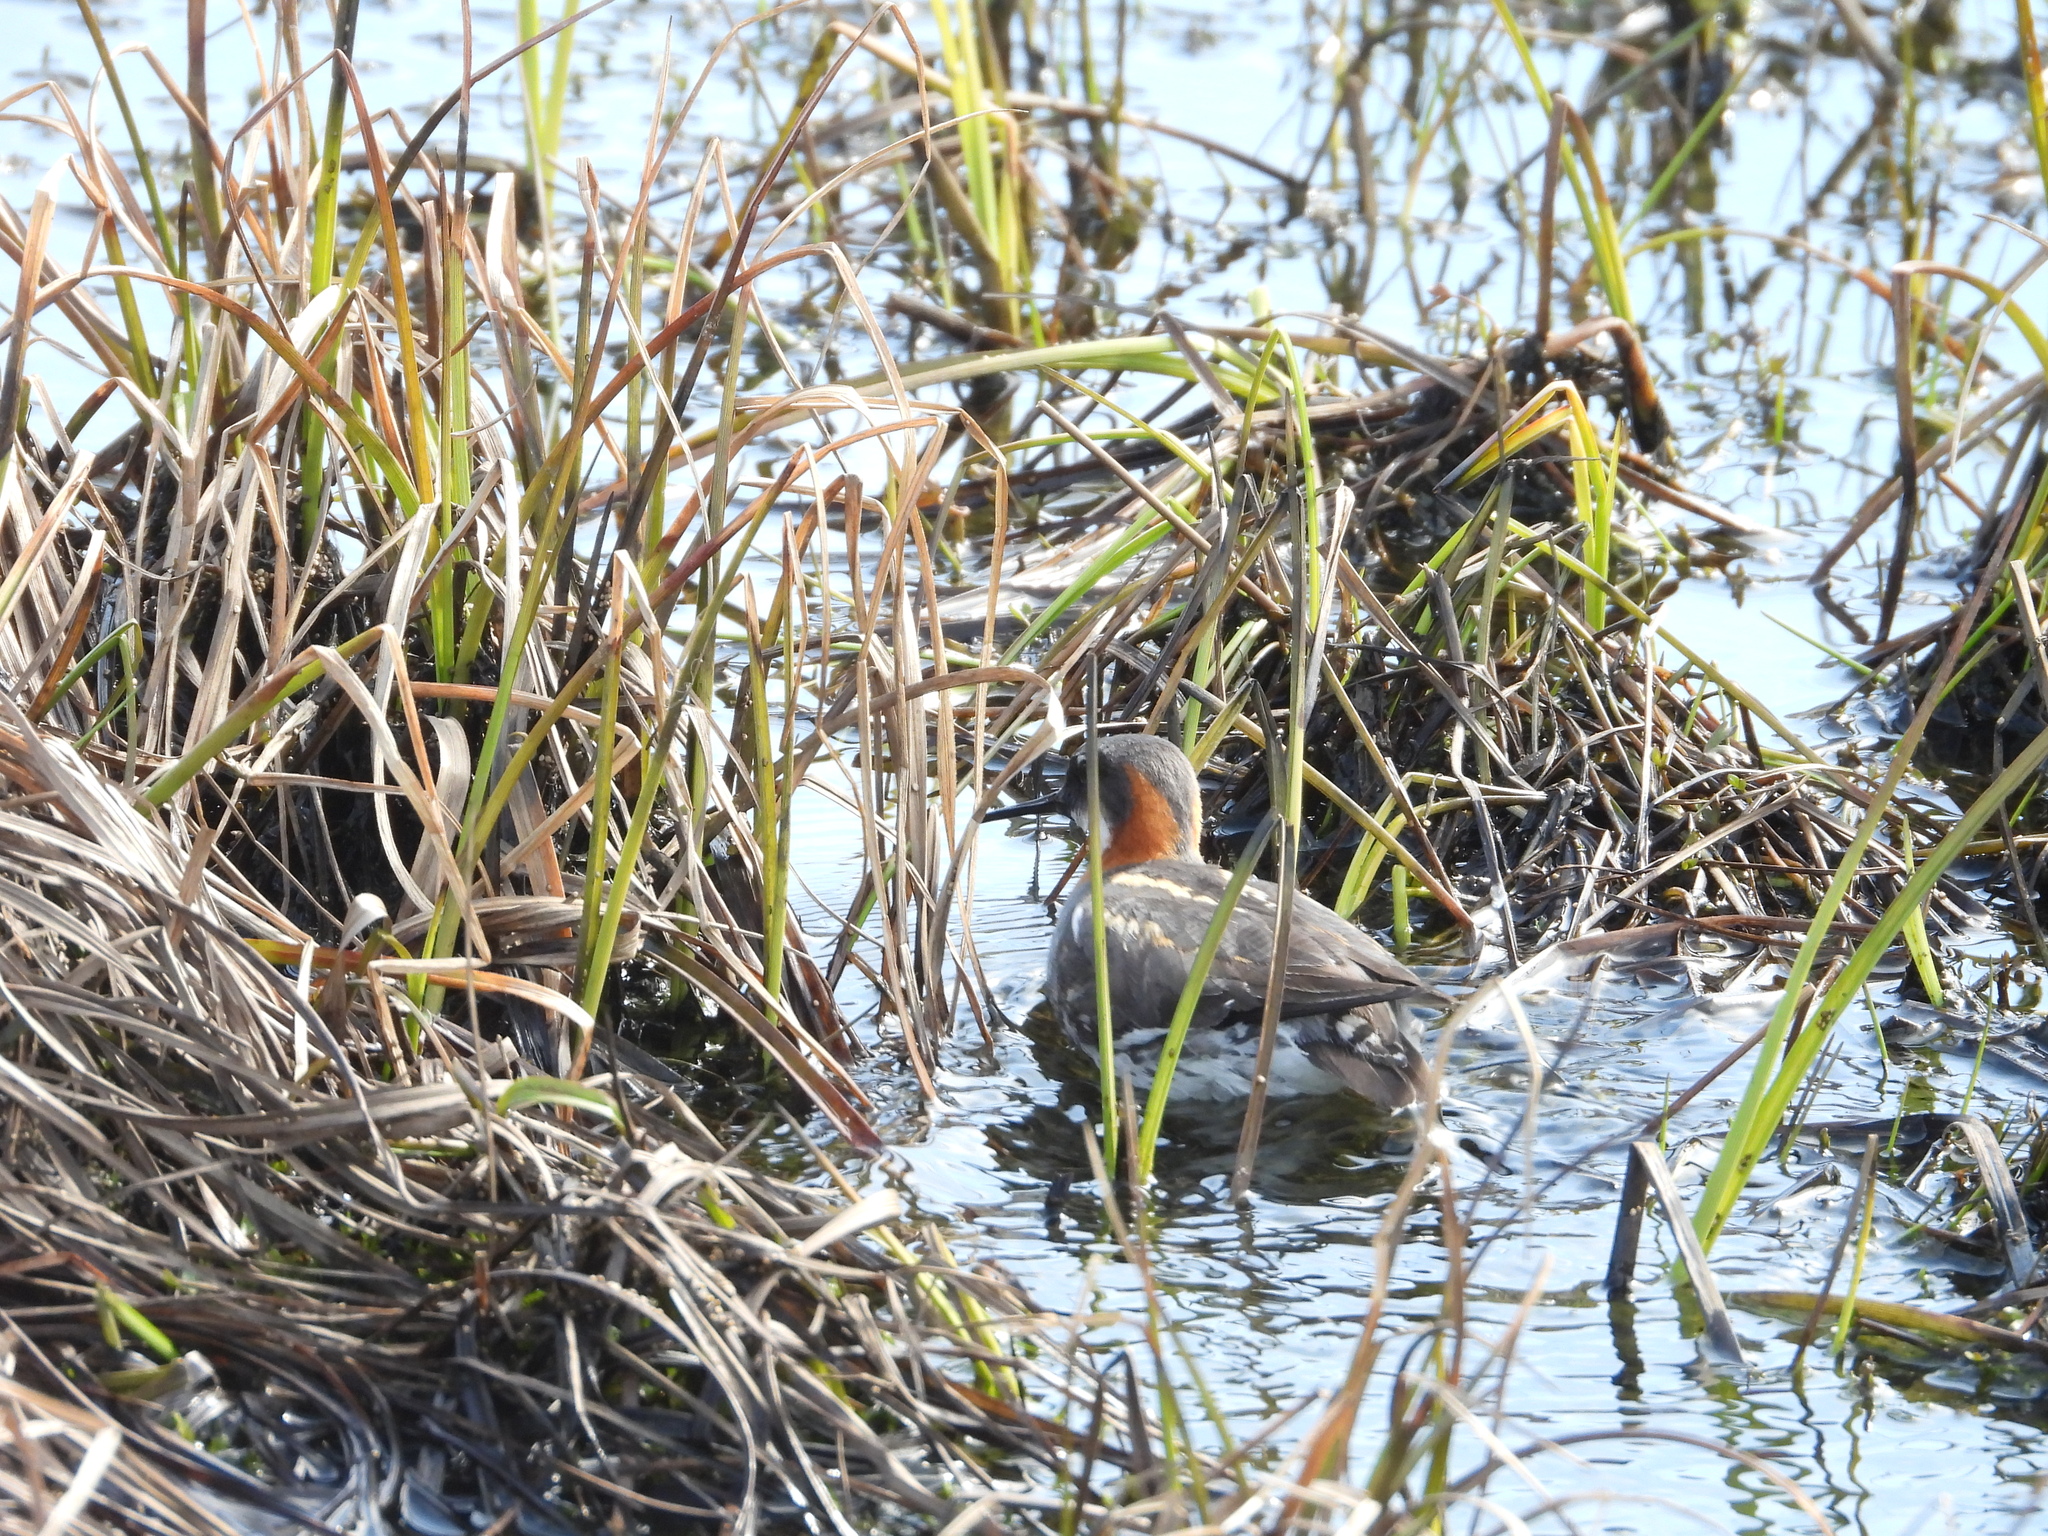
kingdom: Animalia
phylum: Chordata
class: Aves
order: Charadriiformes
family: Scolopacidae
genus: Phalaropus
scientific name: Phalaropus lobatus
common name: Red-necked phalarope
